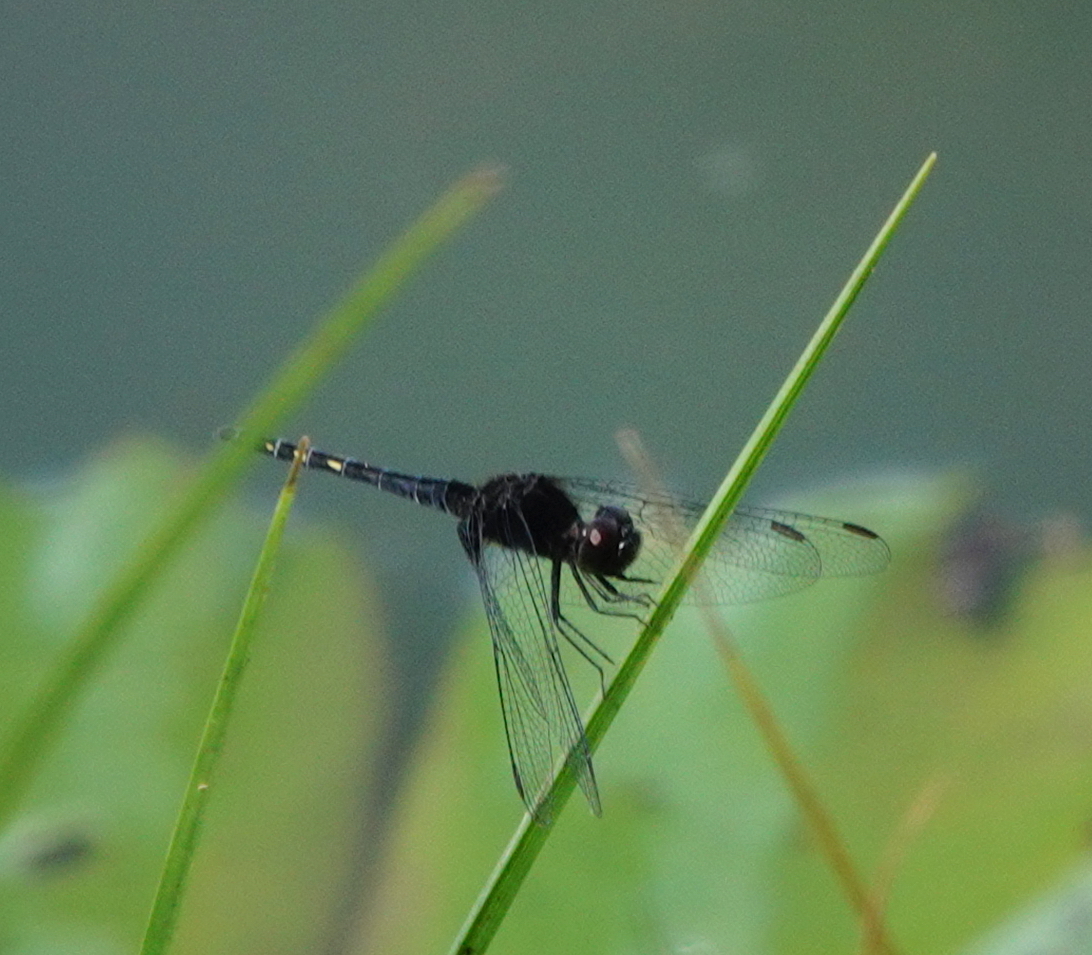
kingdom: Animalia
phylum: Arthropoda
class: Insecta
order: Odonata
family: Libellulidae
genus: Indothemis
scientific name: Indothemis limbata
